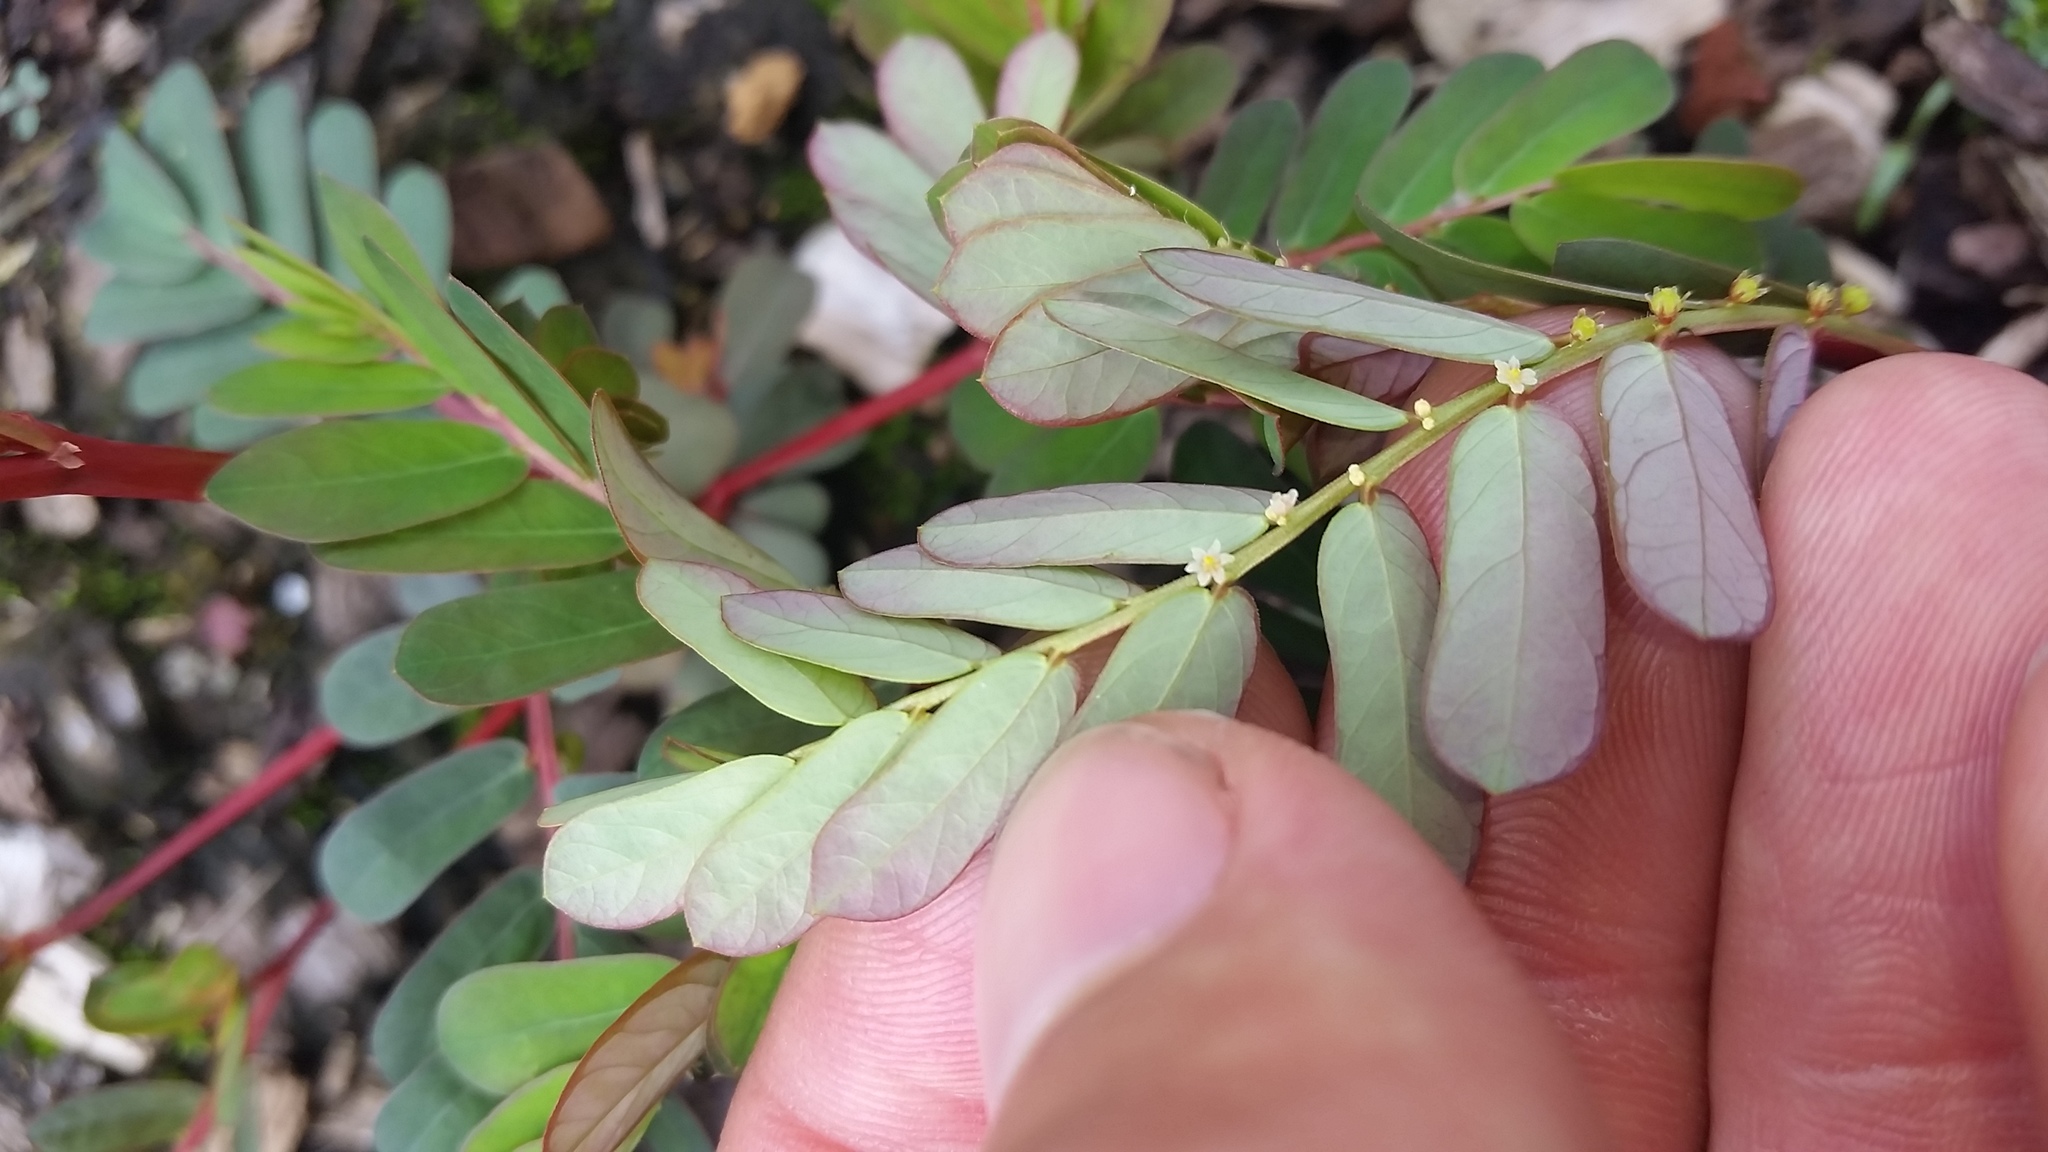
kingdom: Plantae
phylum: Tracheophyta
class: Magnoliopsida
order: Malpighiales
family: Phyllanthaceae
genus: Phyllanthus
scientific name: Phyllanthus urinaria
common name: Chamber bitter
